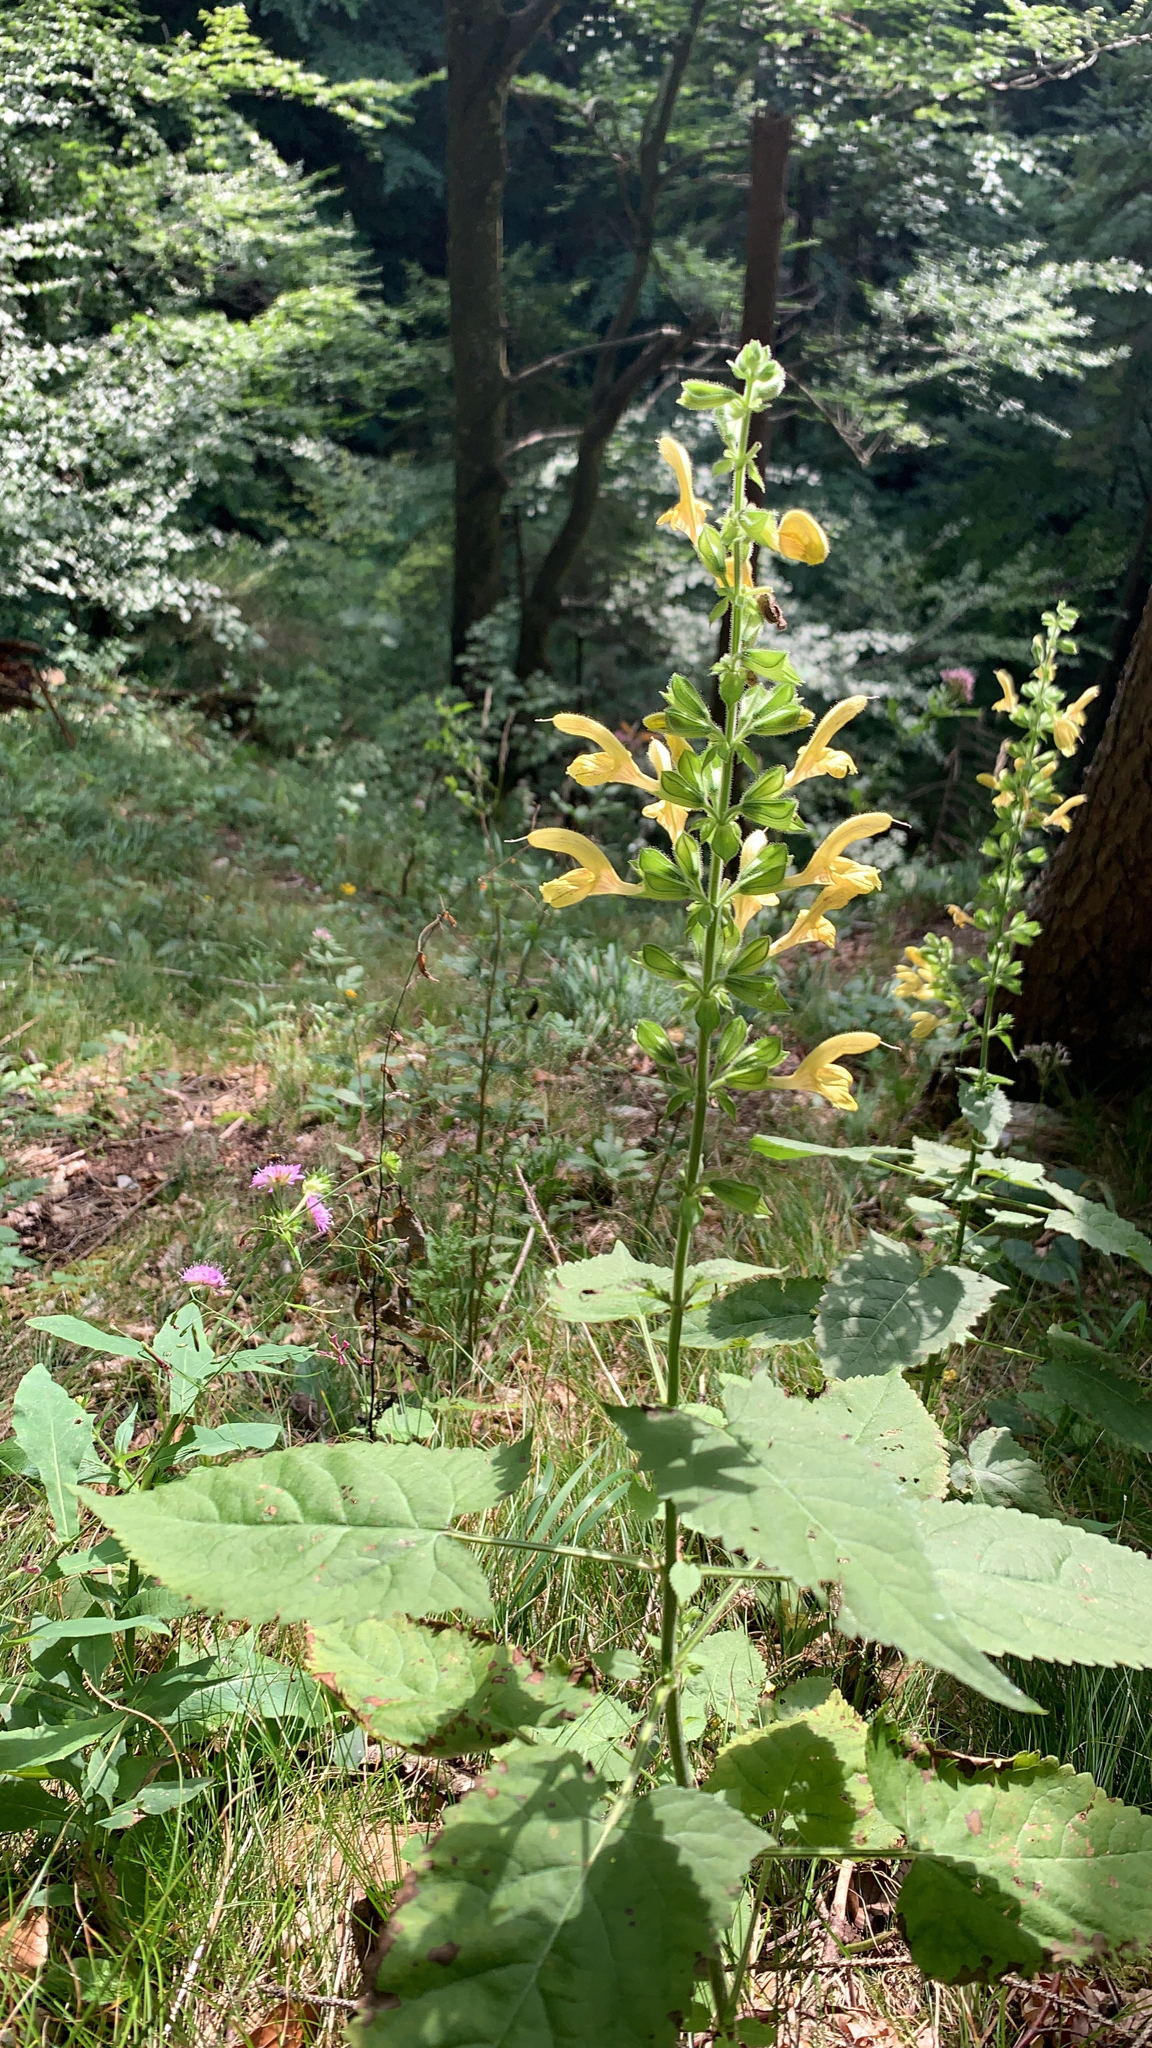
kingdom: Plantae
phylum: Tracheophyta
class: Magnoliopsida
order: Lamiales
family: Lamiaceae
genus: Salvia
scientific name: Salvia glutinosa
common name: Sticky clary
